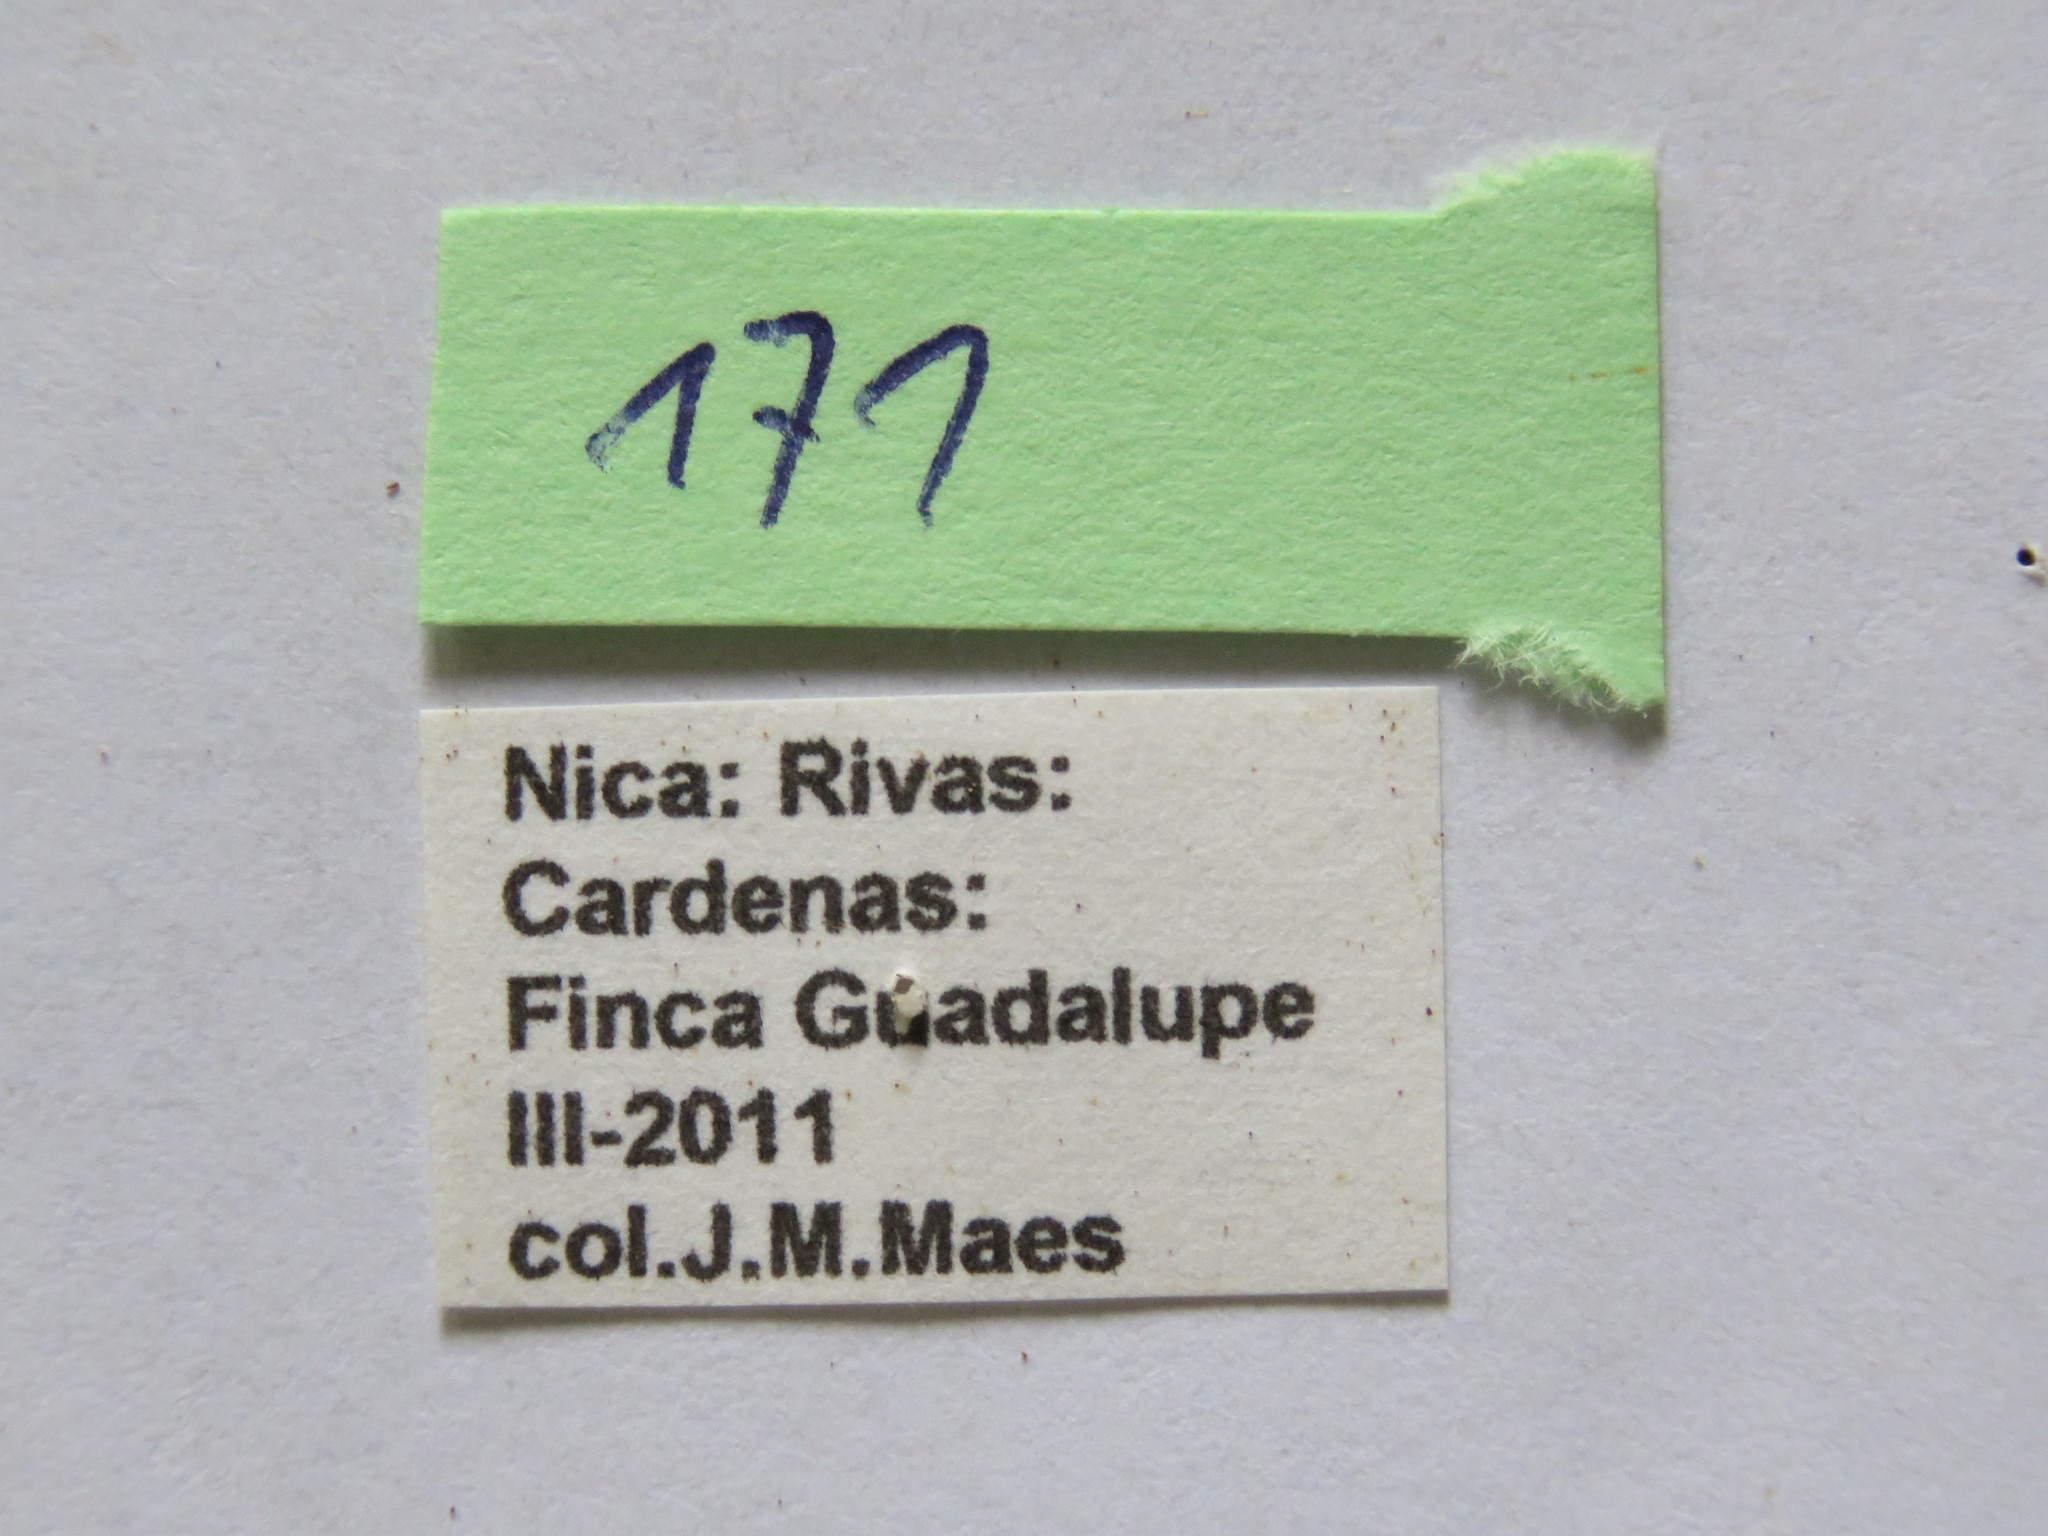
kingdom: Animalia
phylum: Arthropoda
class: Insecta
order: Hemiptera
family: Coreidae
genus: Paryphes
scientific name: Paryphes blandus
